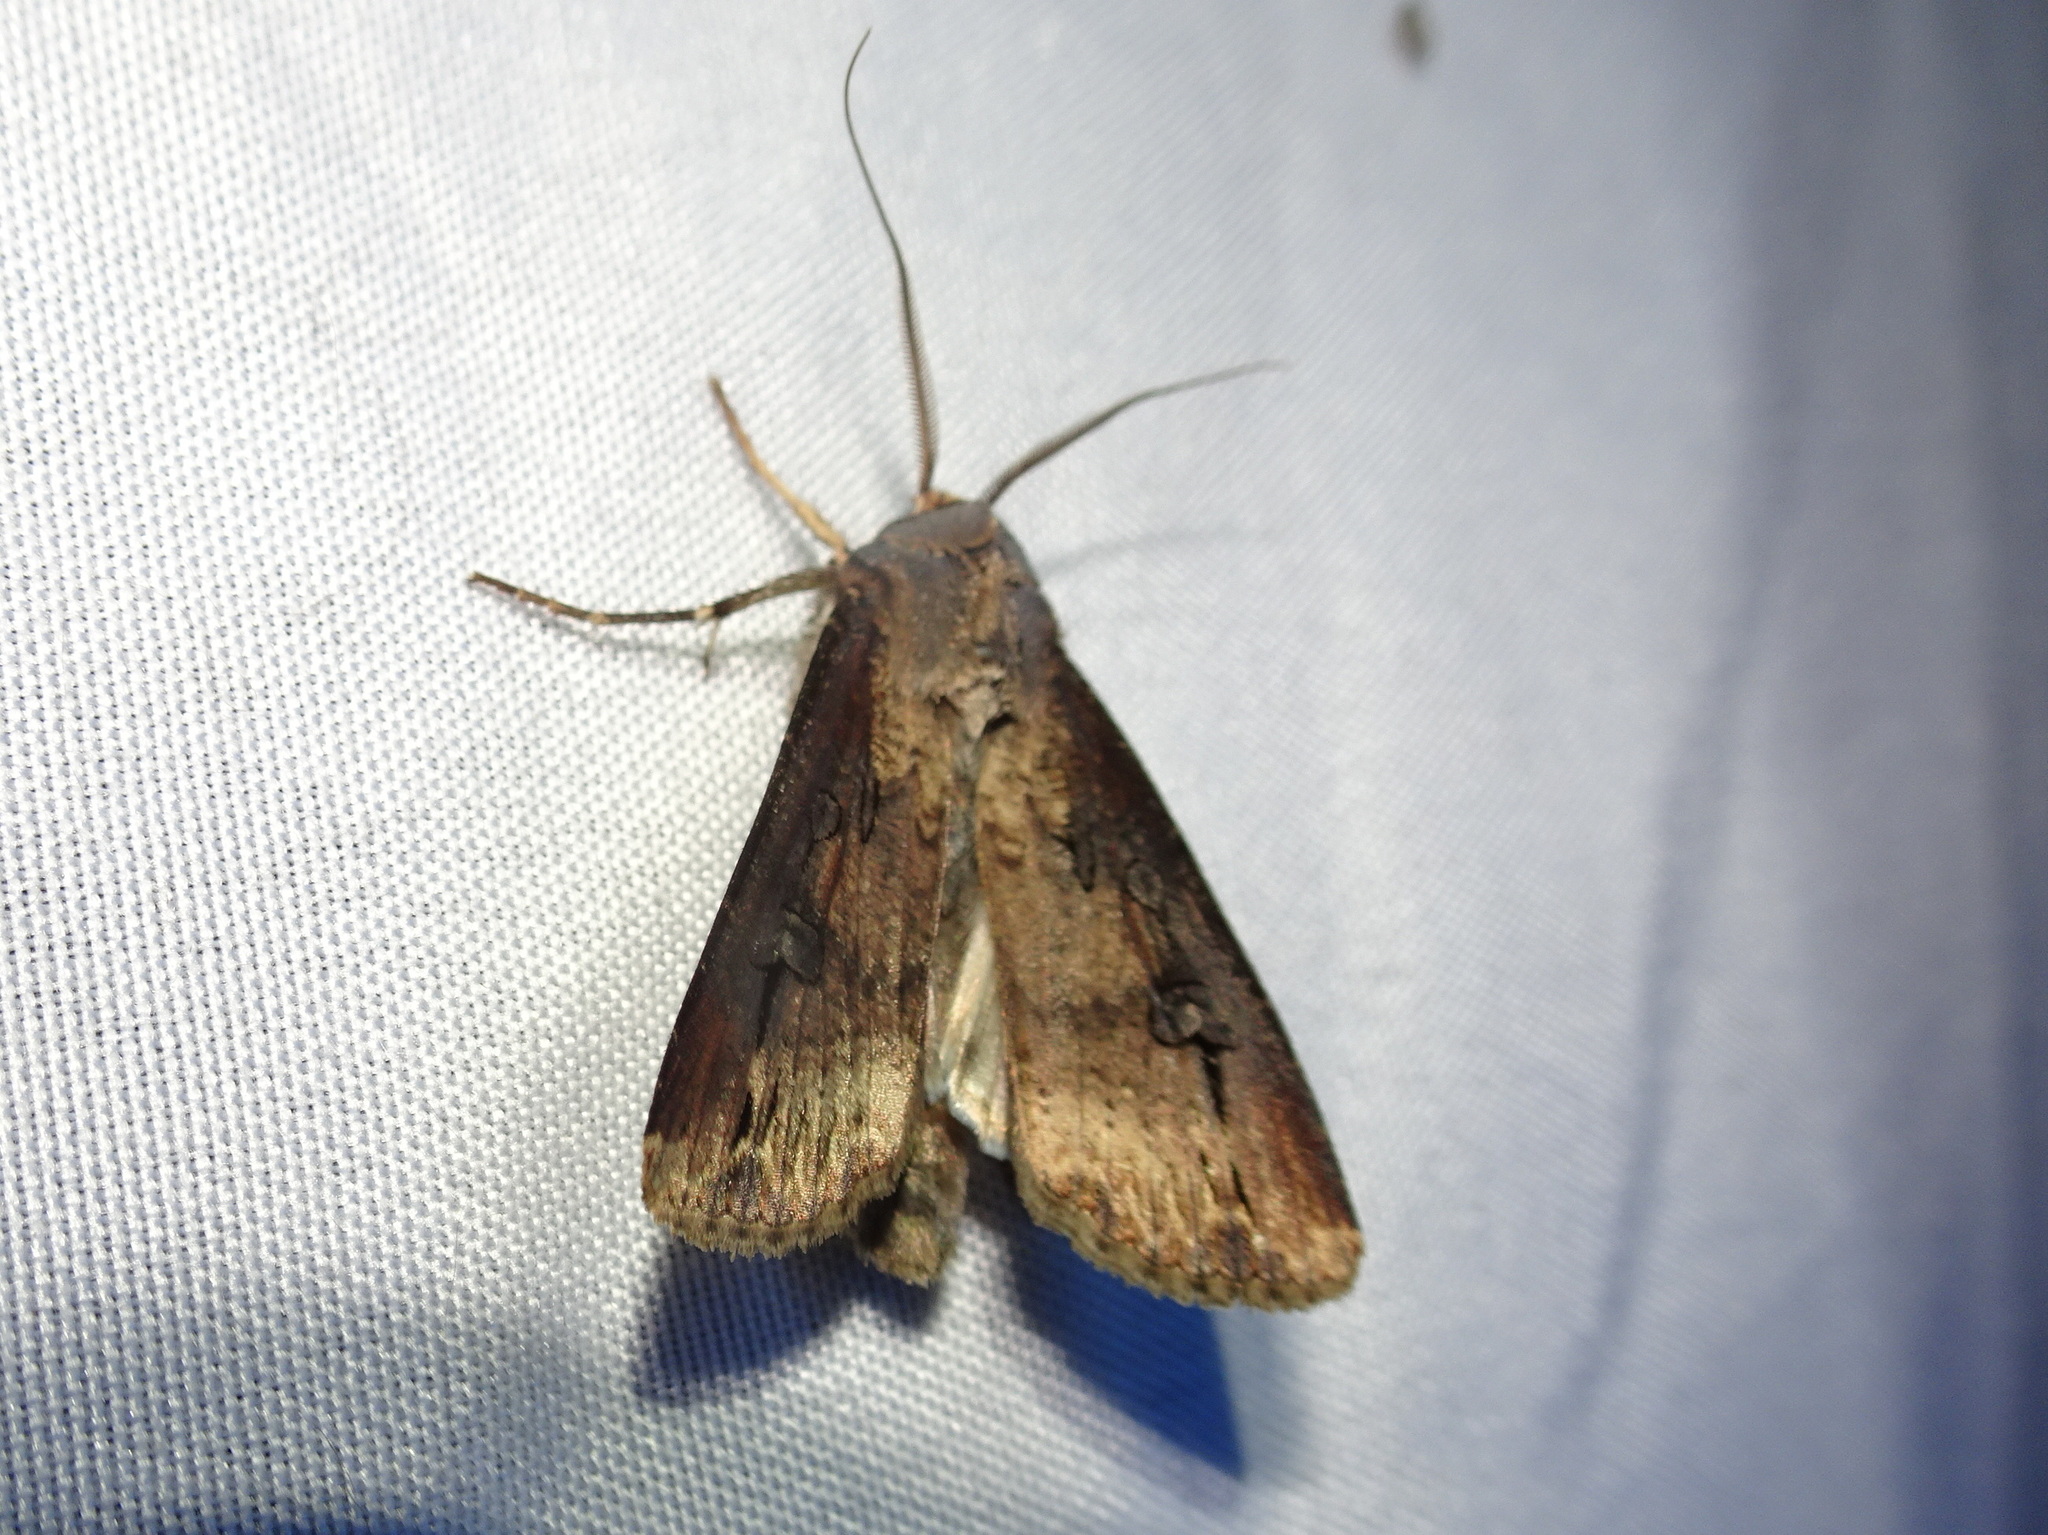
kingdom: Animalia
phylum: Arthropoda
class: Insecta
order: Lepidoptera
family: Noctuidae
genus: Agrotis
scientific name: Agrotis ipsilon
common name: Dark sword-grass
